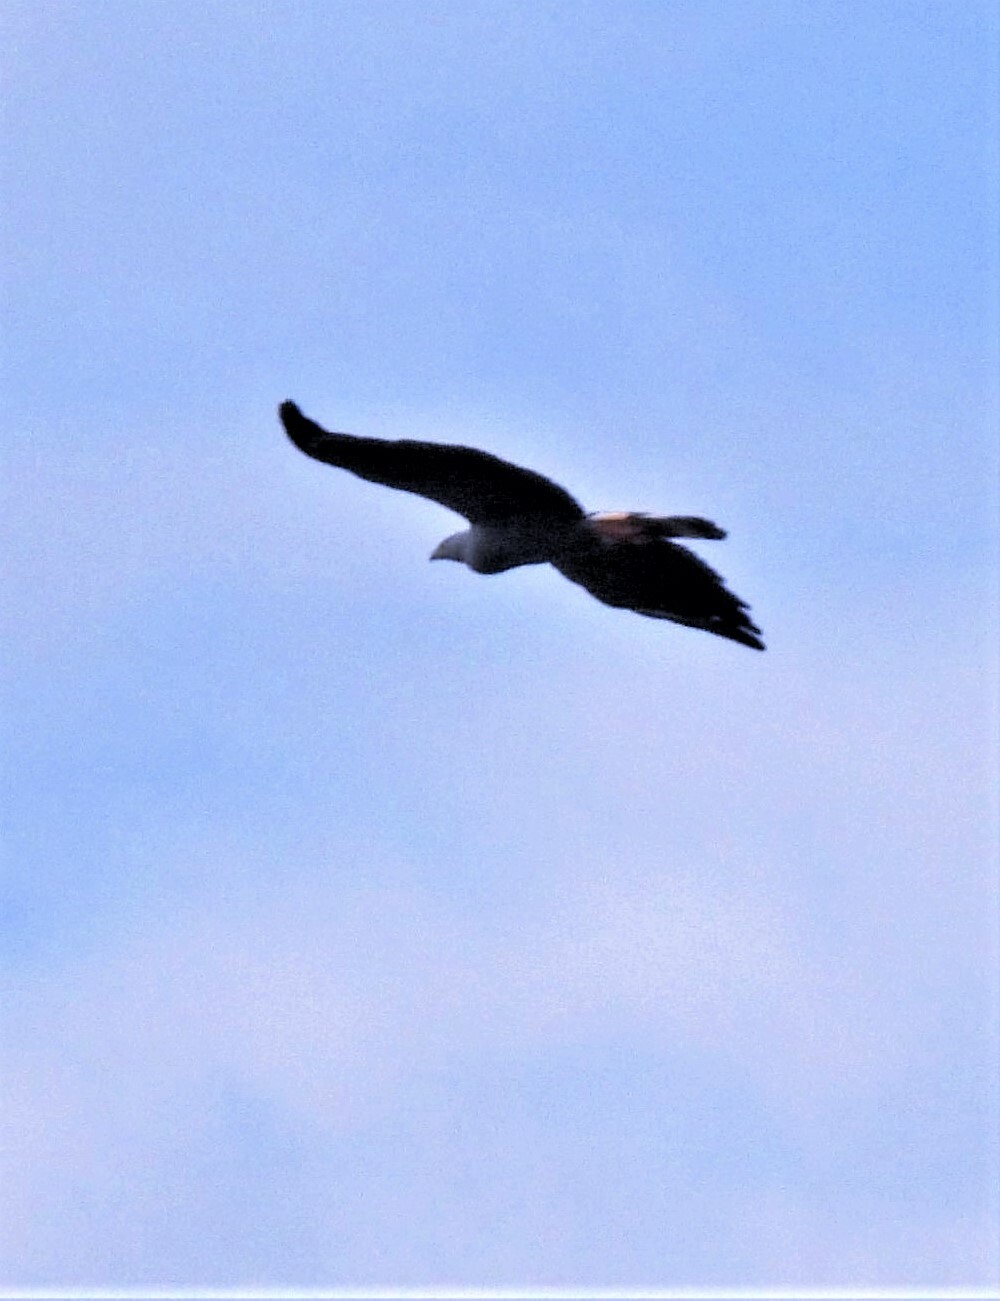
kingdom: Animalia
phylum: Chordata
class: Aves
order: Accipitriformes
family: Accipitridae
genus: Geranospiza
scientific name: Geranospiza caerulescens
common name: Crane hawk
